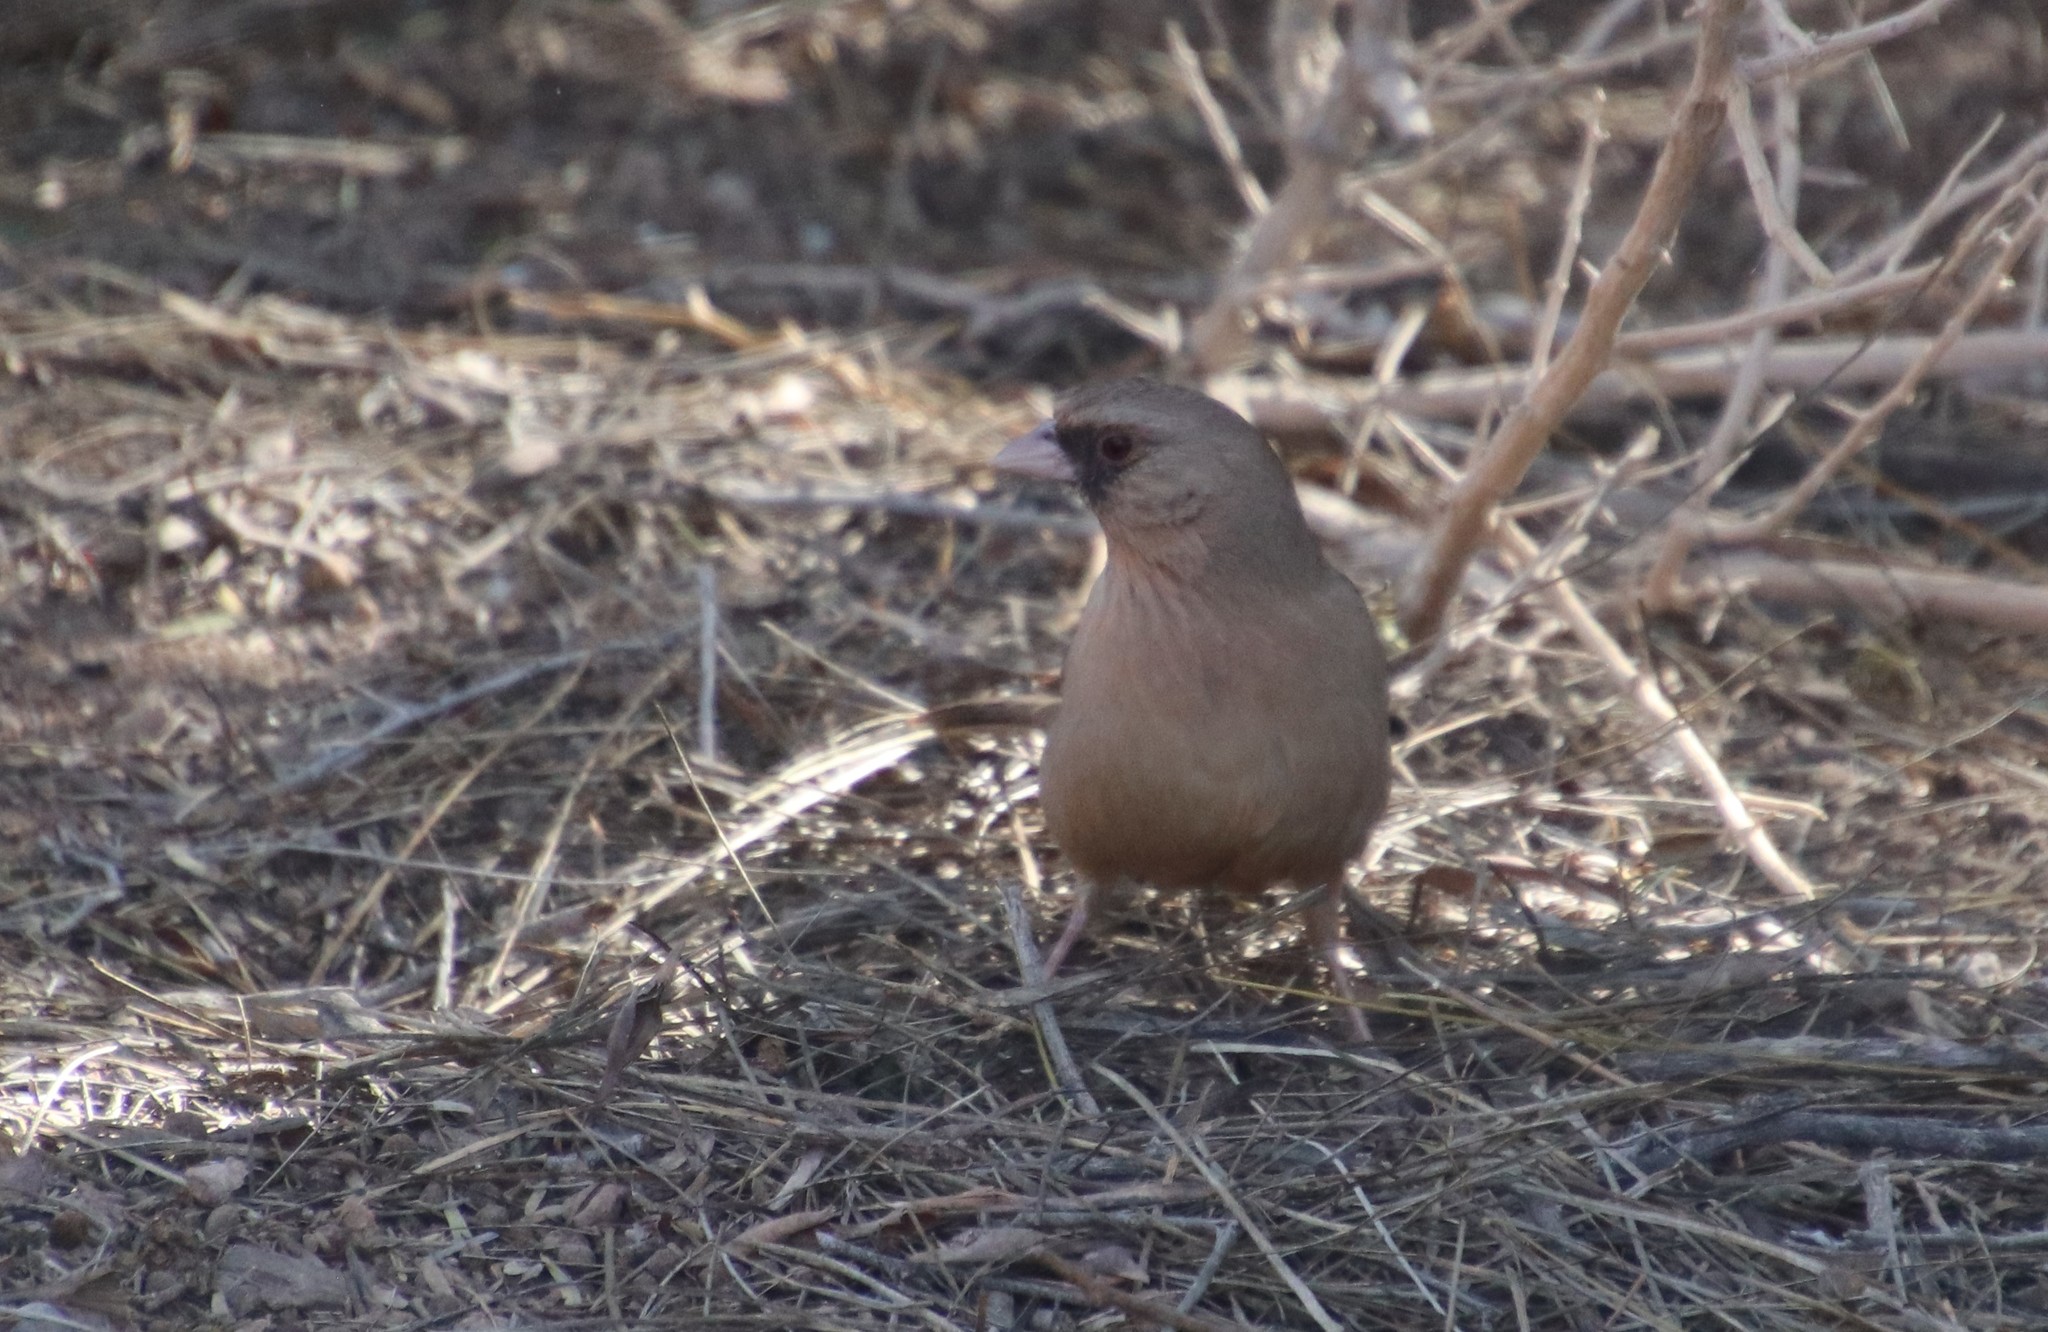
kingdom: Animalia
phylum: Chordata
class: Aves
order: Passeriformes
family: Passerellidae
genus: Melozone
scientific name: Melozone aberti
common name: Abert's towhee
